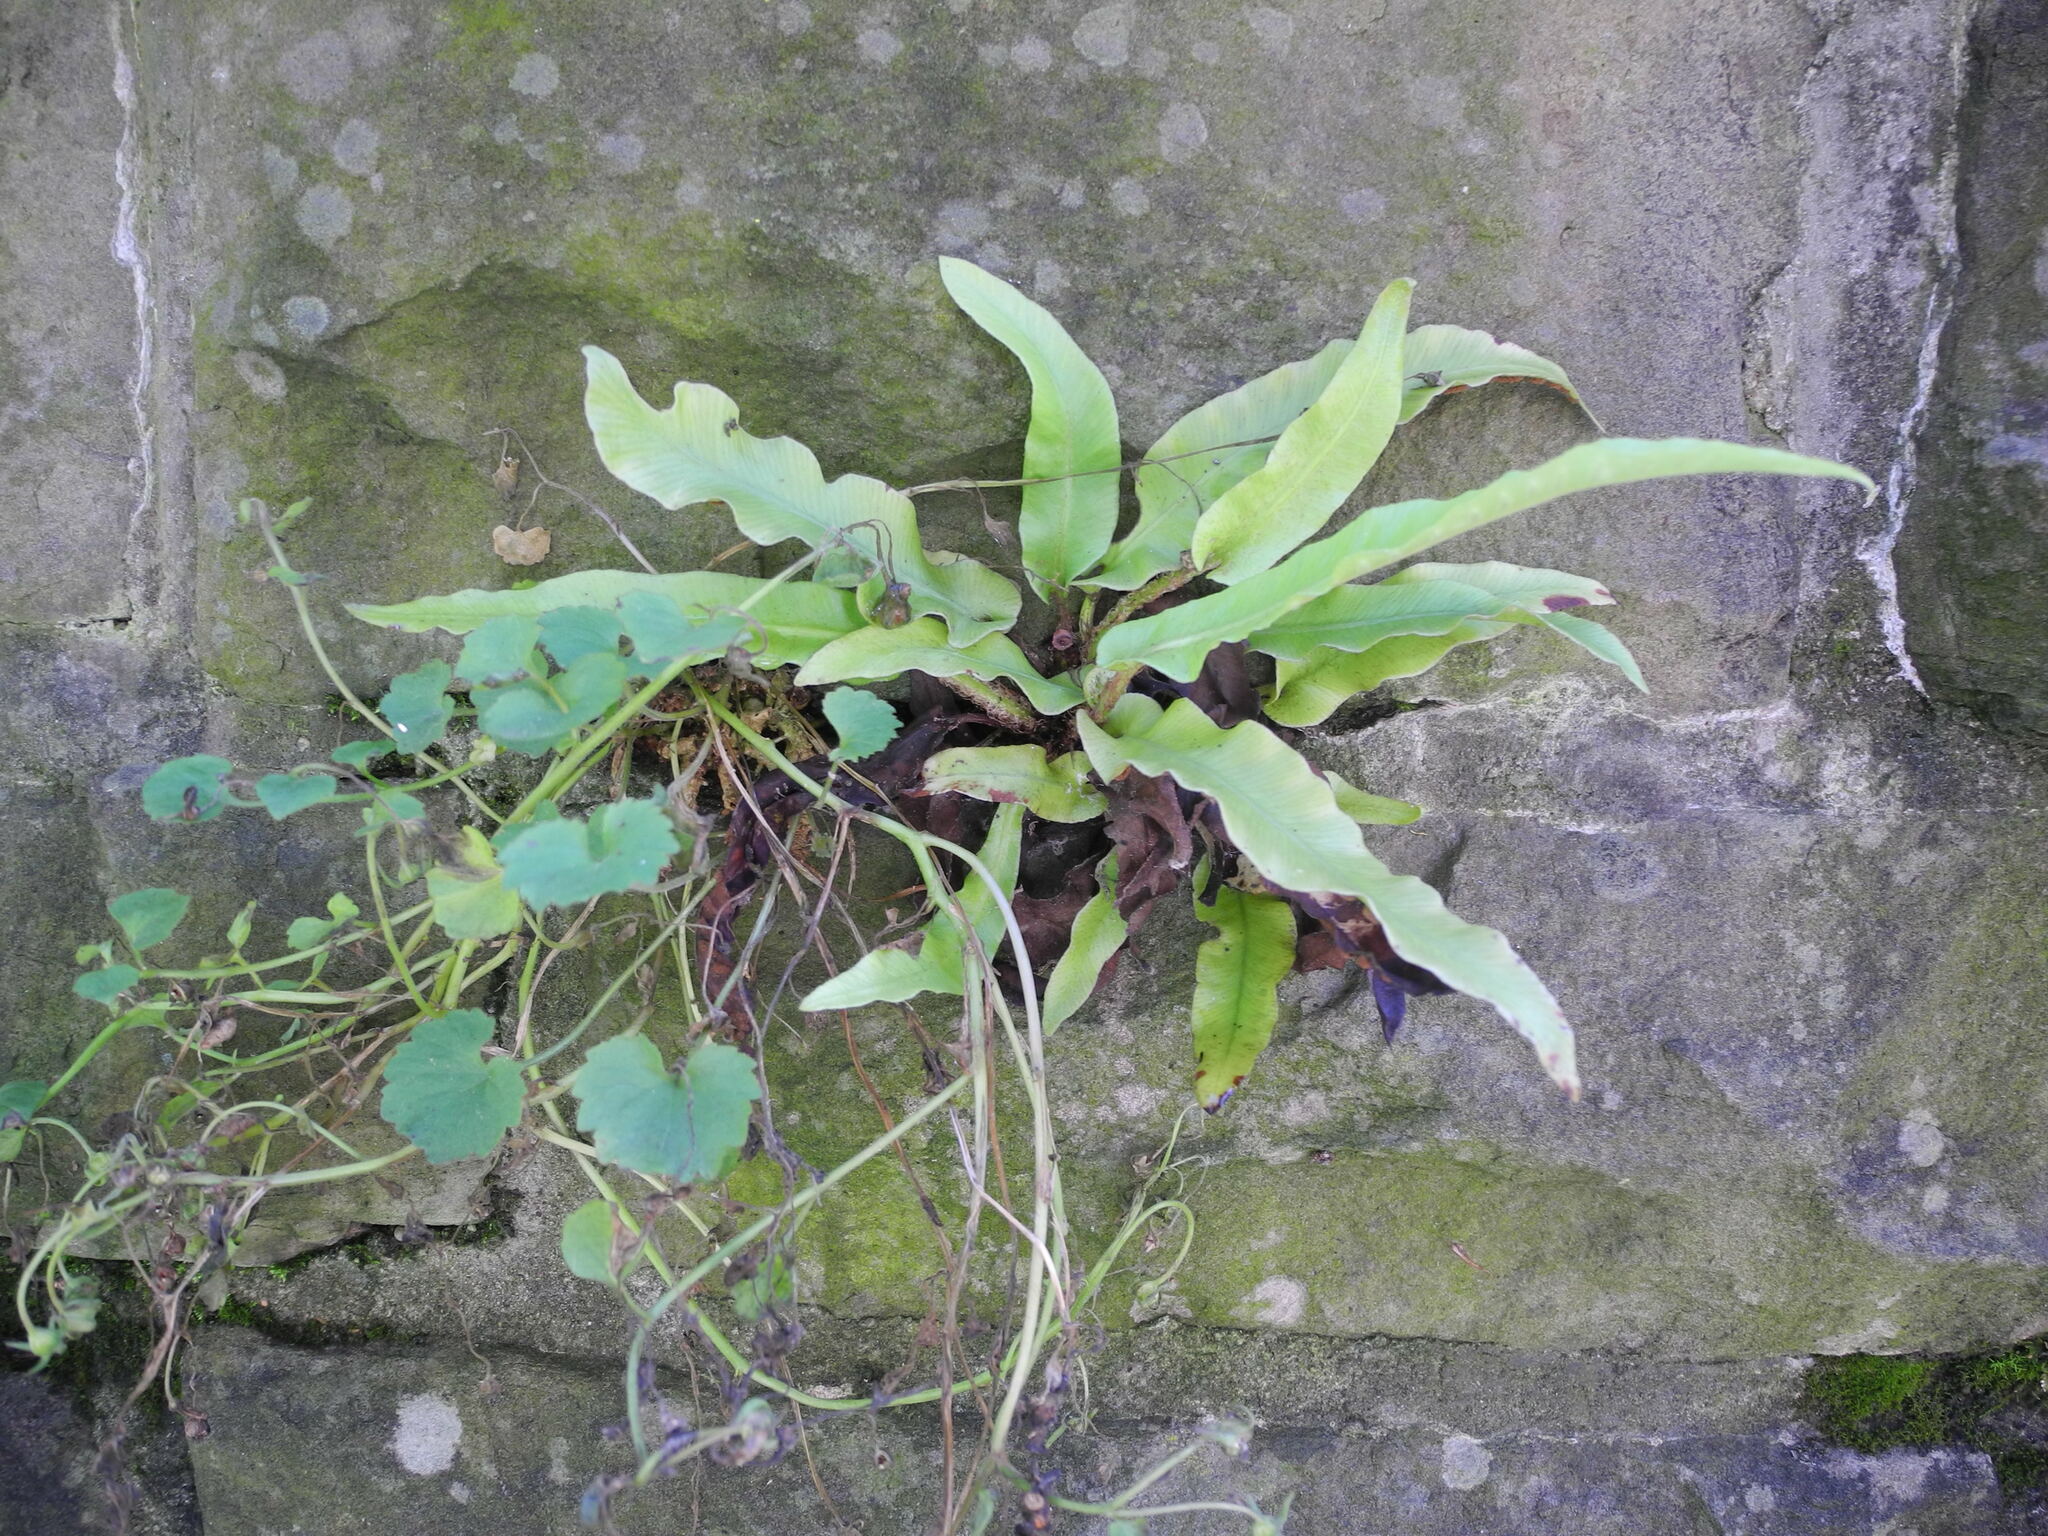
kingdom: Plantae
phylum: Tracheophyta
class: Polypodiopsida
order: Polypodiales
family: Aspleniaceae
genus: Asplenium
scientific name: Asplenium scolopendrium
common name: Hart's-tongue fern
